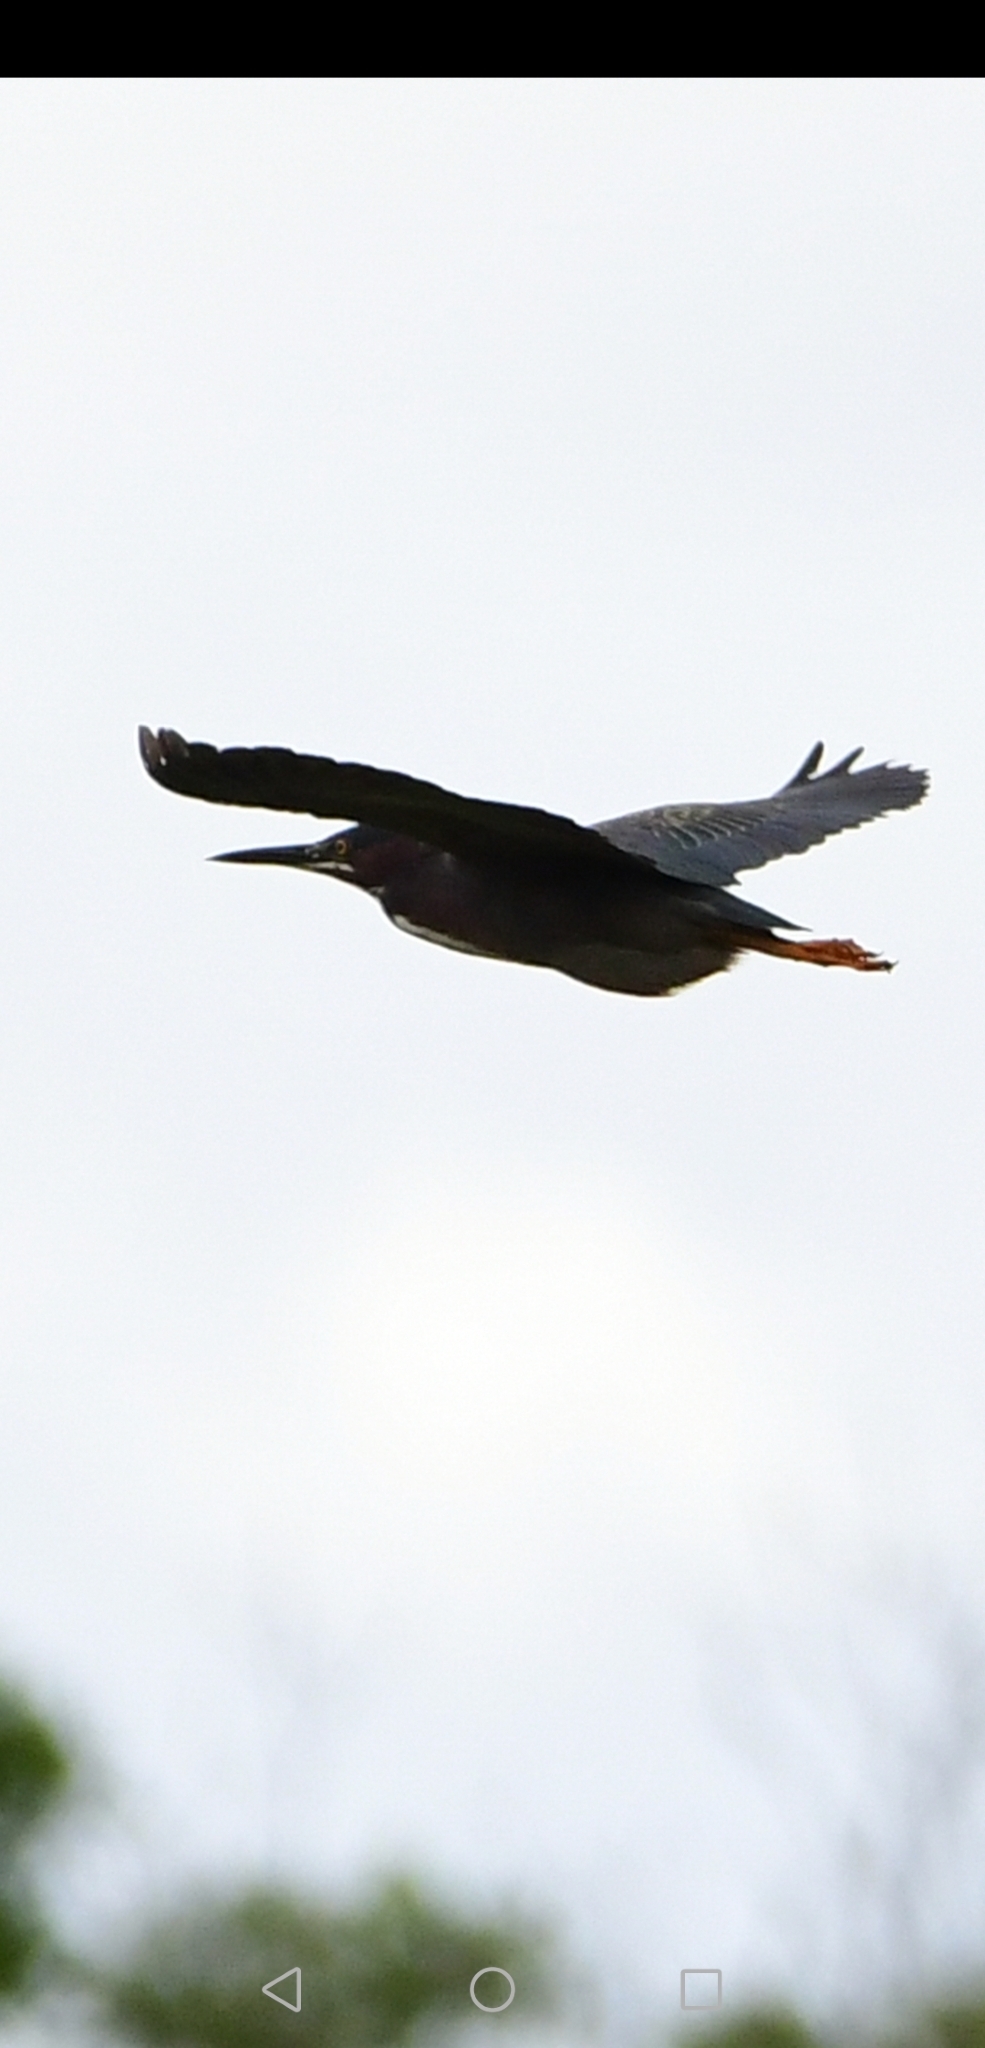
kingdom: Animalia
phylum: Chordata
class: Aves
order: Pelecaniformes
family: Ardeidae
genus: Butorides
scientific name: Butorides virescens
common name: Green heron
